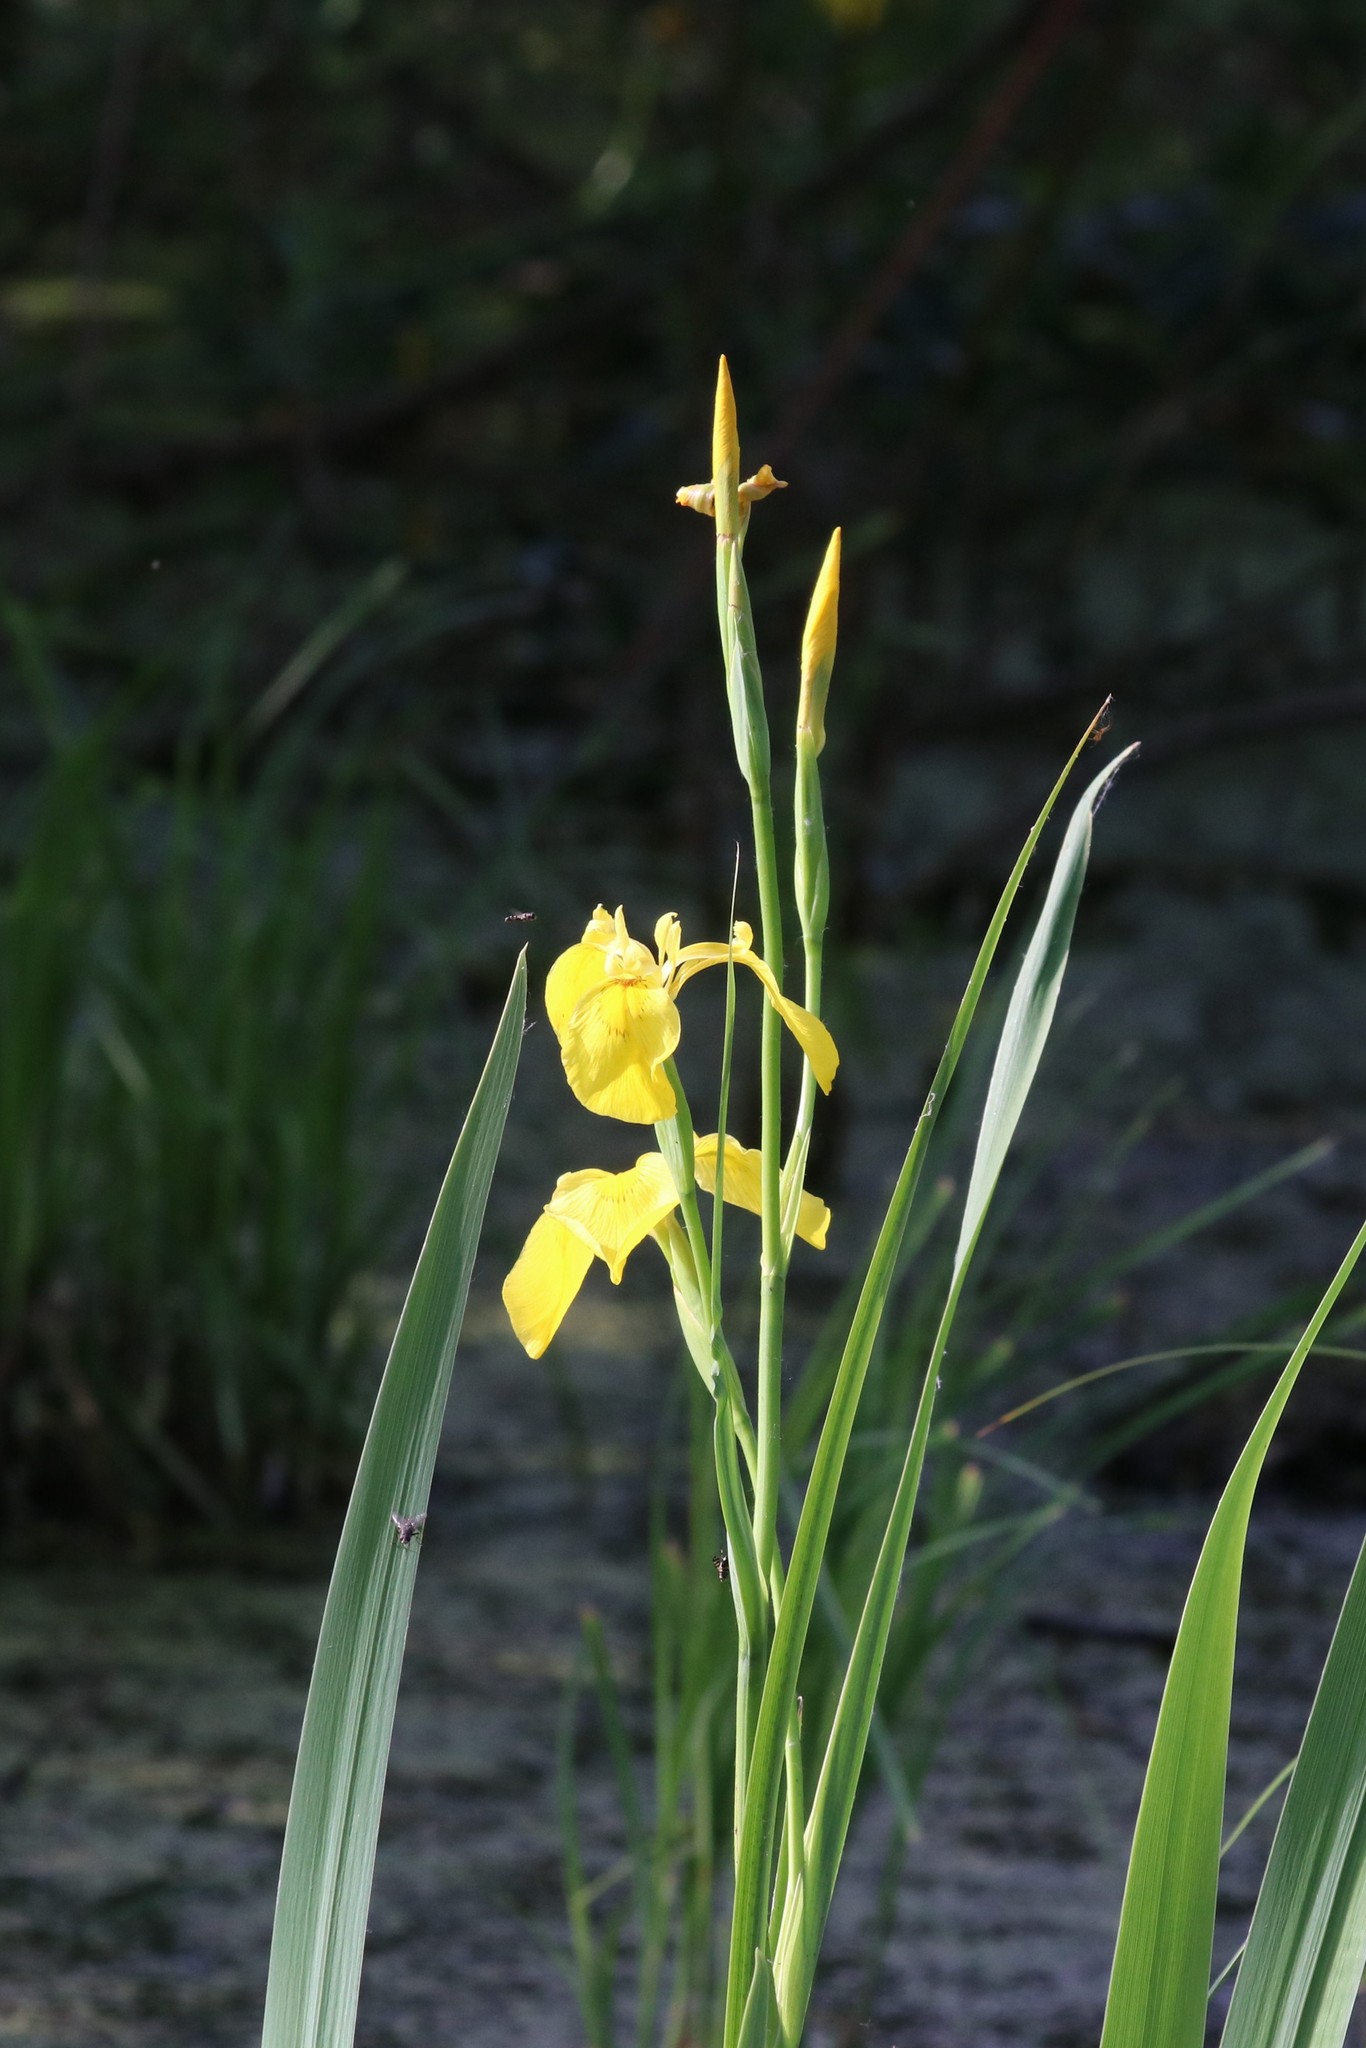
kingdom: Plantae
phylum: Tracheophyta
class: Liliopsida
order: Asparagales
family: Iridaceae
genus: Iris
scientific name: Iris pseudacorus
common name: Yellow flag
